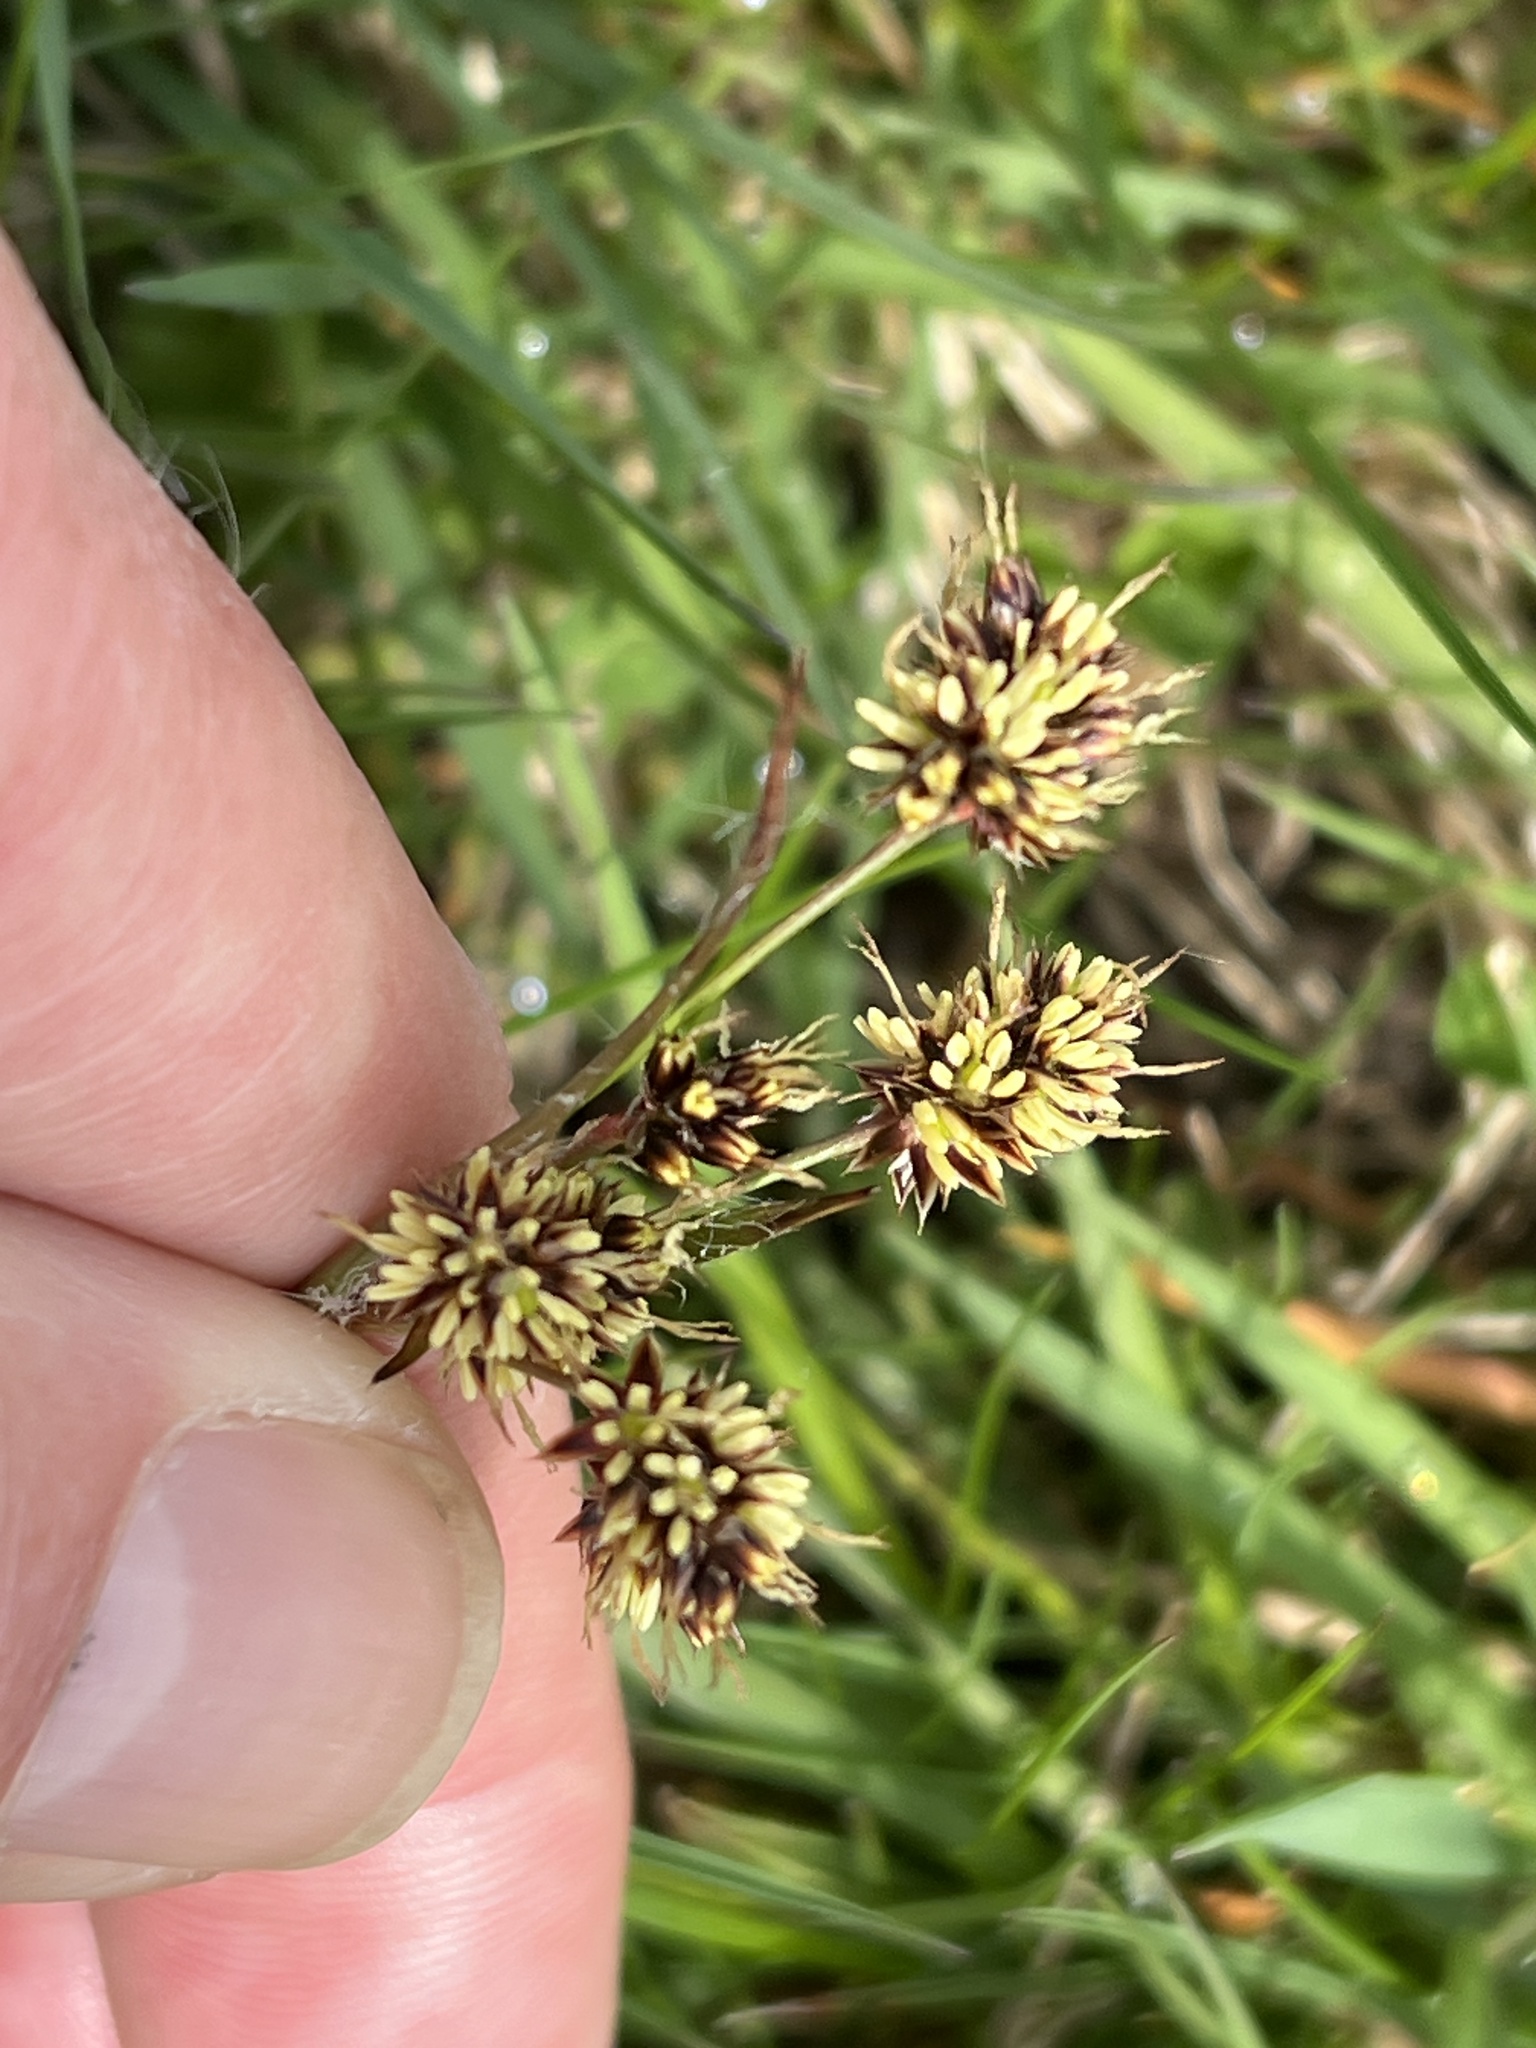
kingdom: Plantae
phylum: Tracheophyta
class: Liliopsida
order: Poales
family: Juncaceae
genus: Luzula
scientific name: Luzula campestris
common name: Field wood-rush
